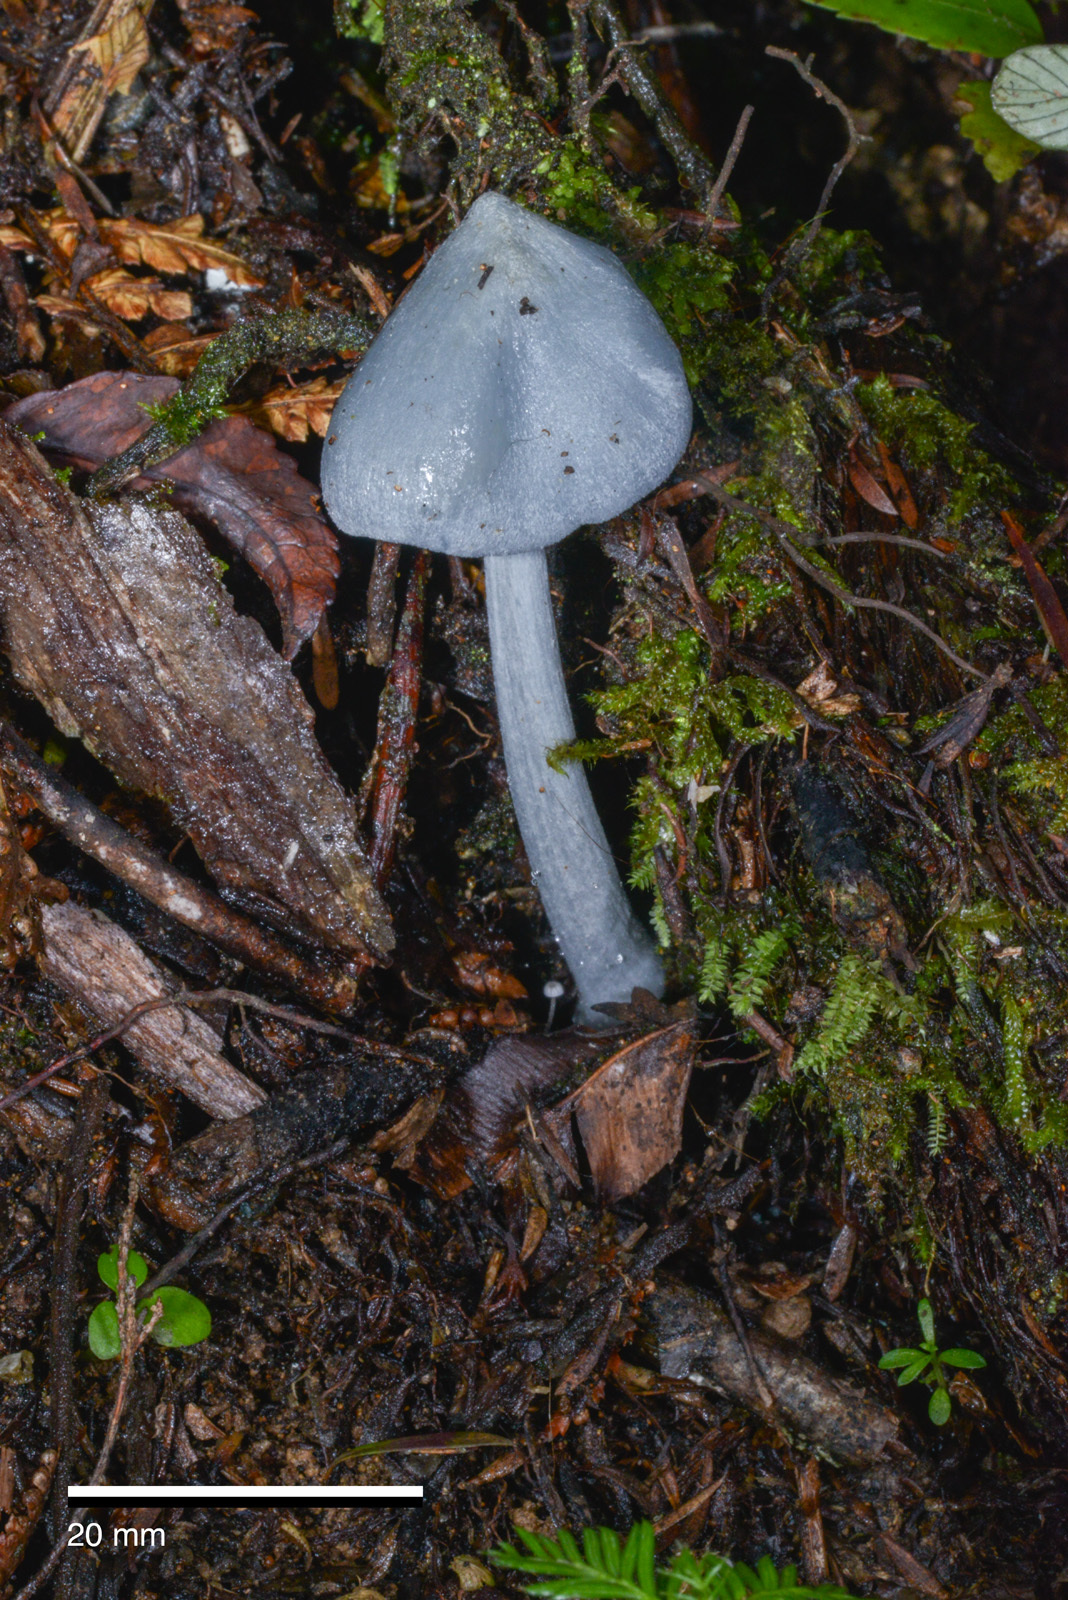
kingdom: Fungi
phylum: Basidiomycota
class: Agaricomycetes
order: Agaricales
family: Entolomataceae
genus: Entoloma
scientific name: Entoloma hochstetteri
